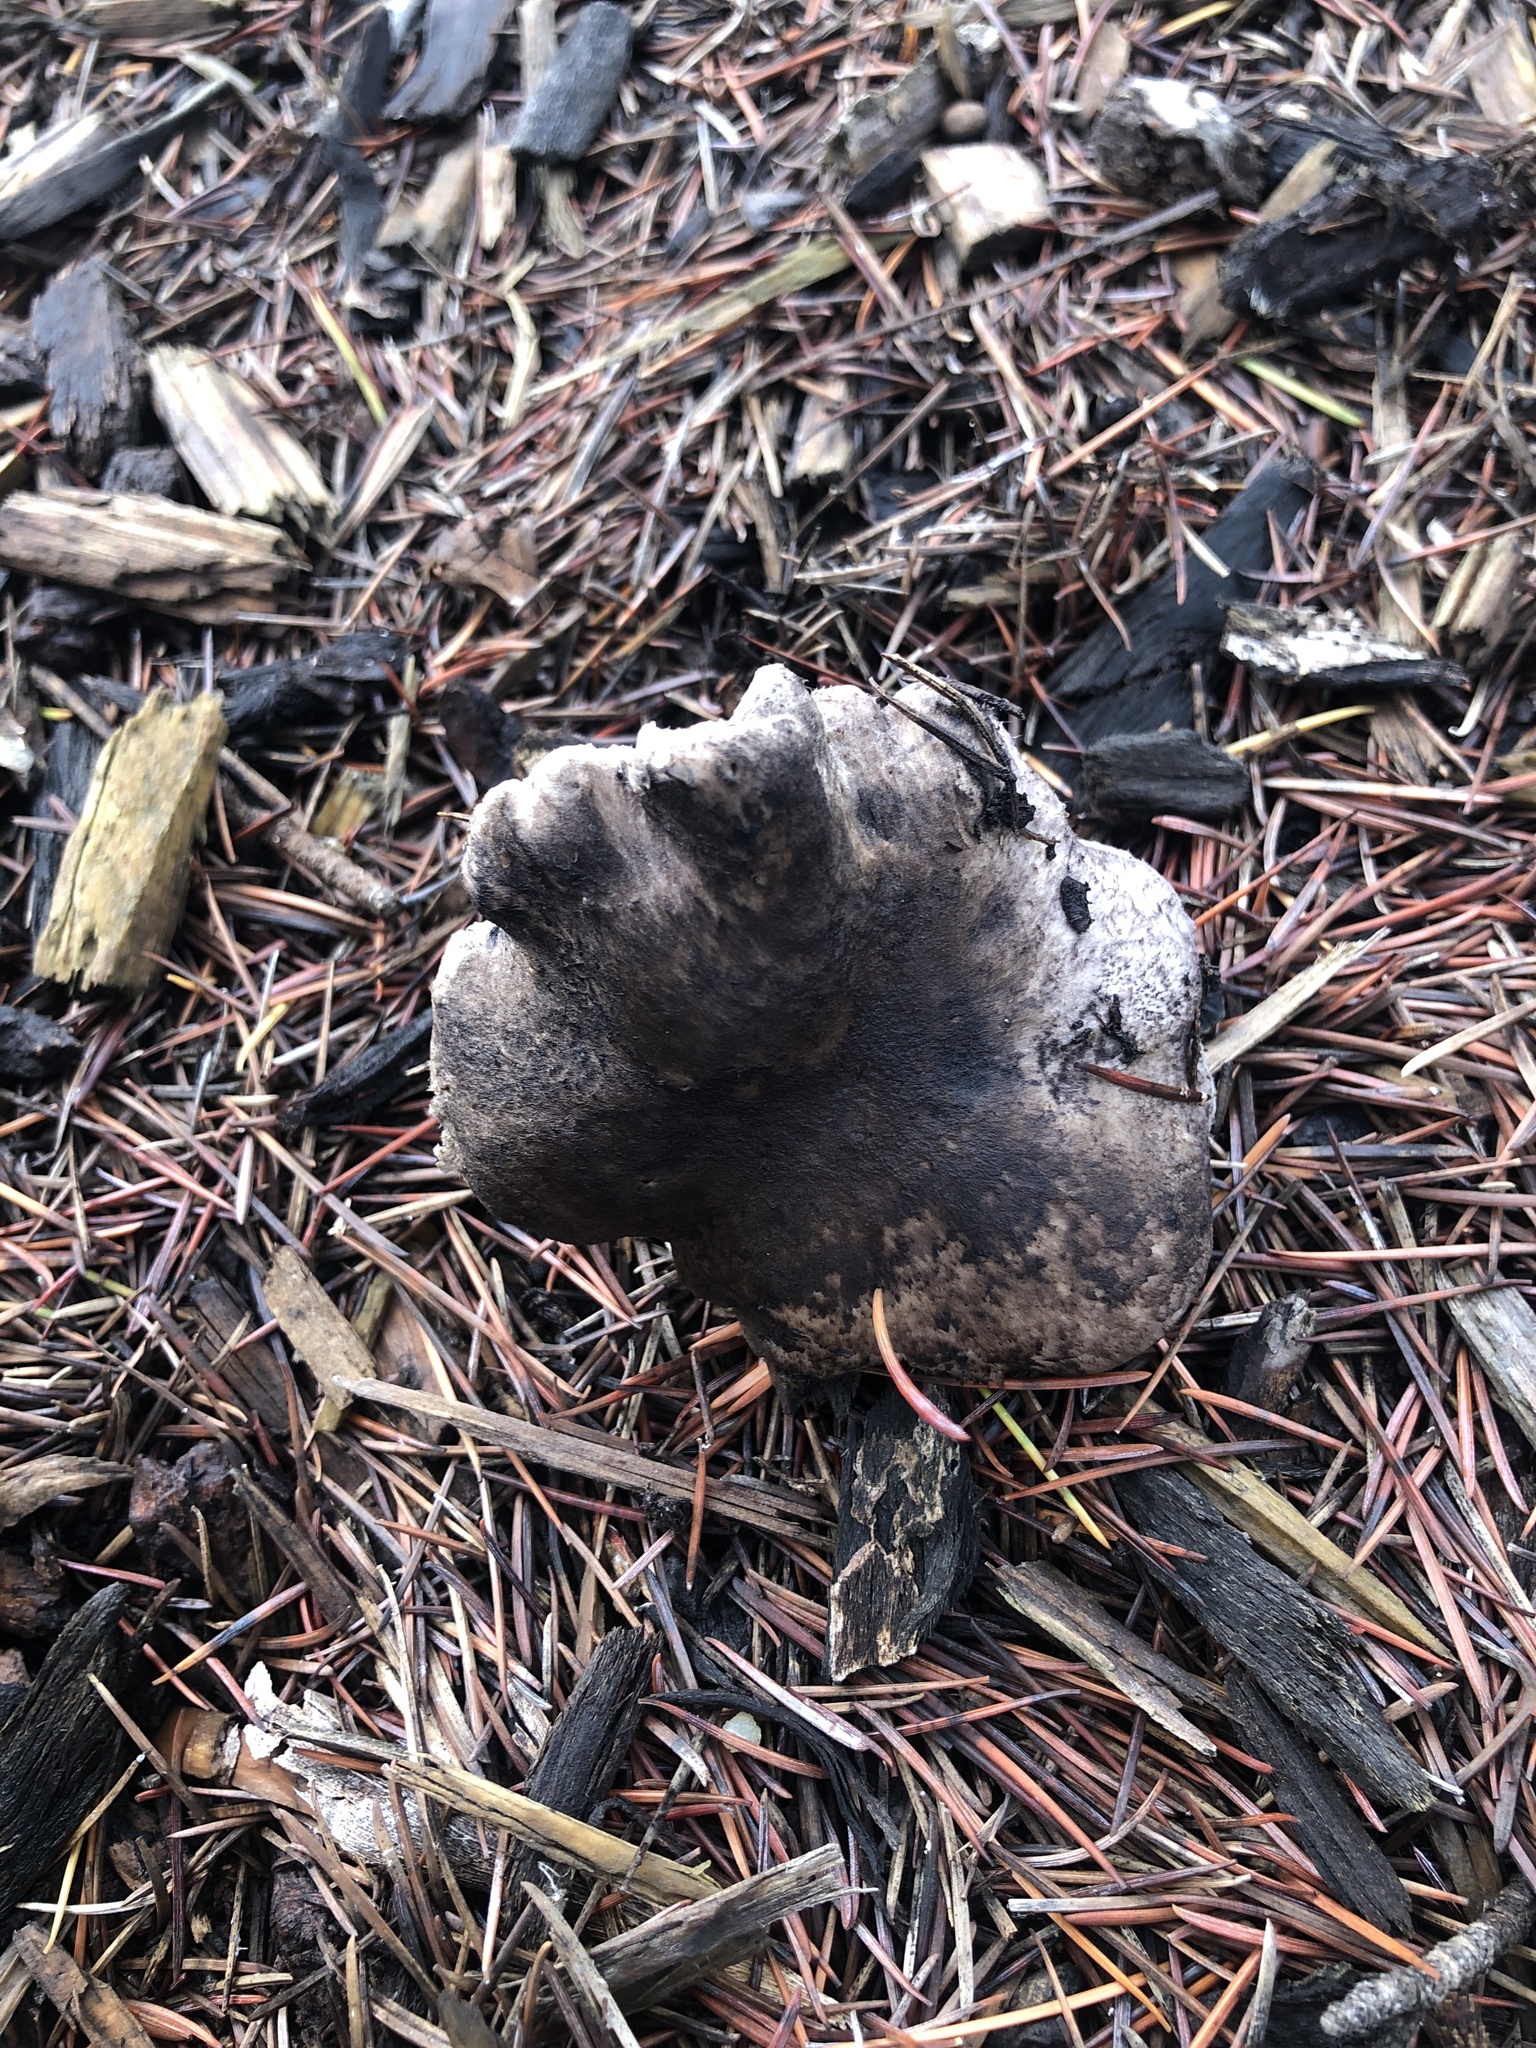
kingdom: Fungi
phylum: Basidiomycota
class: Agaricomycetes
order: Agaricales
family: Tricholomataceae
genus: Tricholoma
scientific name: Tricholoma terreum
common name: Grey knight
